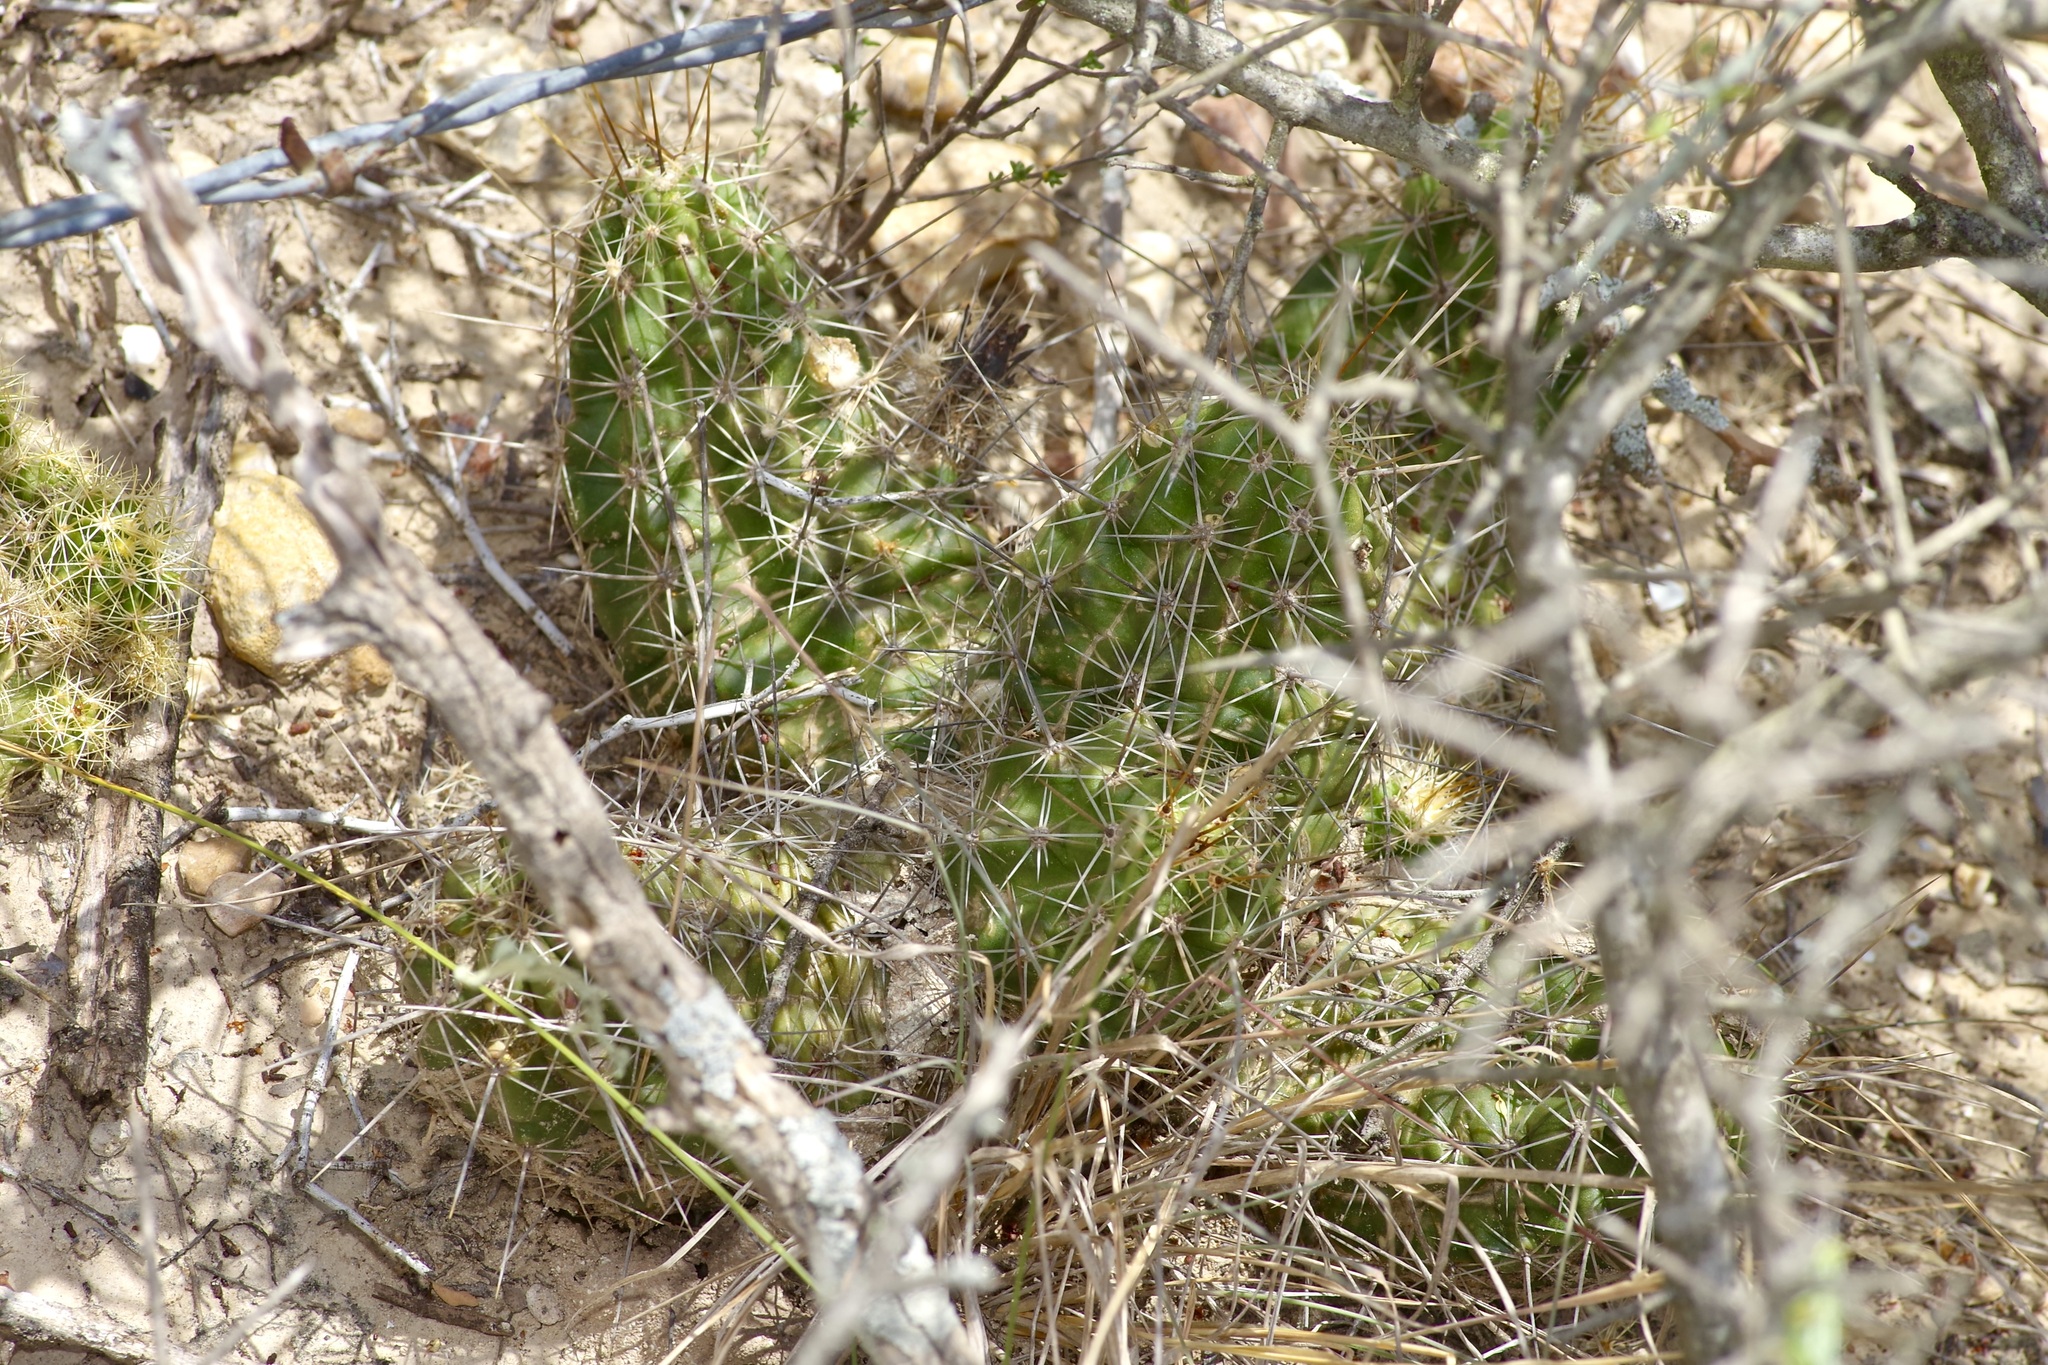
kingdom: Plantae
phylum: Tracheophyta
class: Magnoliopsida
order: Caryophyllales
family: Cactaceae
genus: Echinocereus
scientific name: Echinocereus enneacanthus
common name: Pitaya
